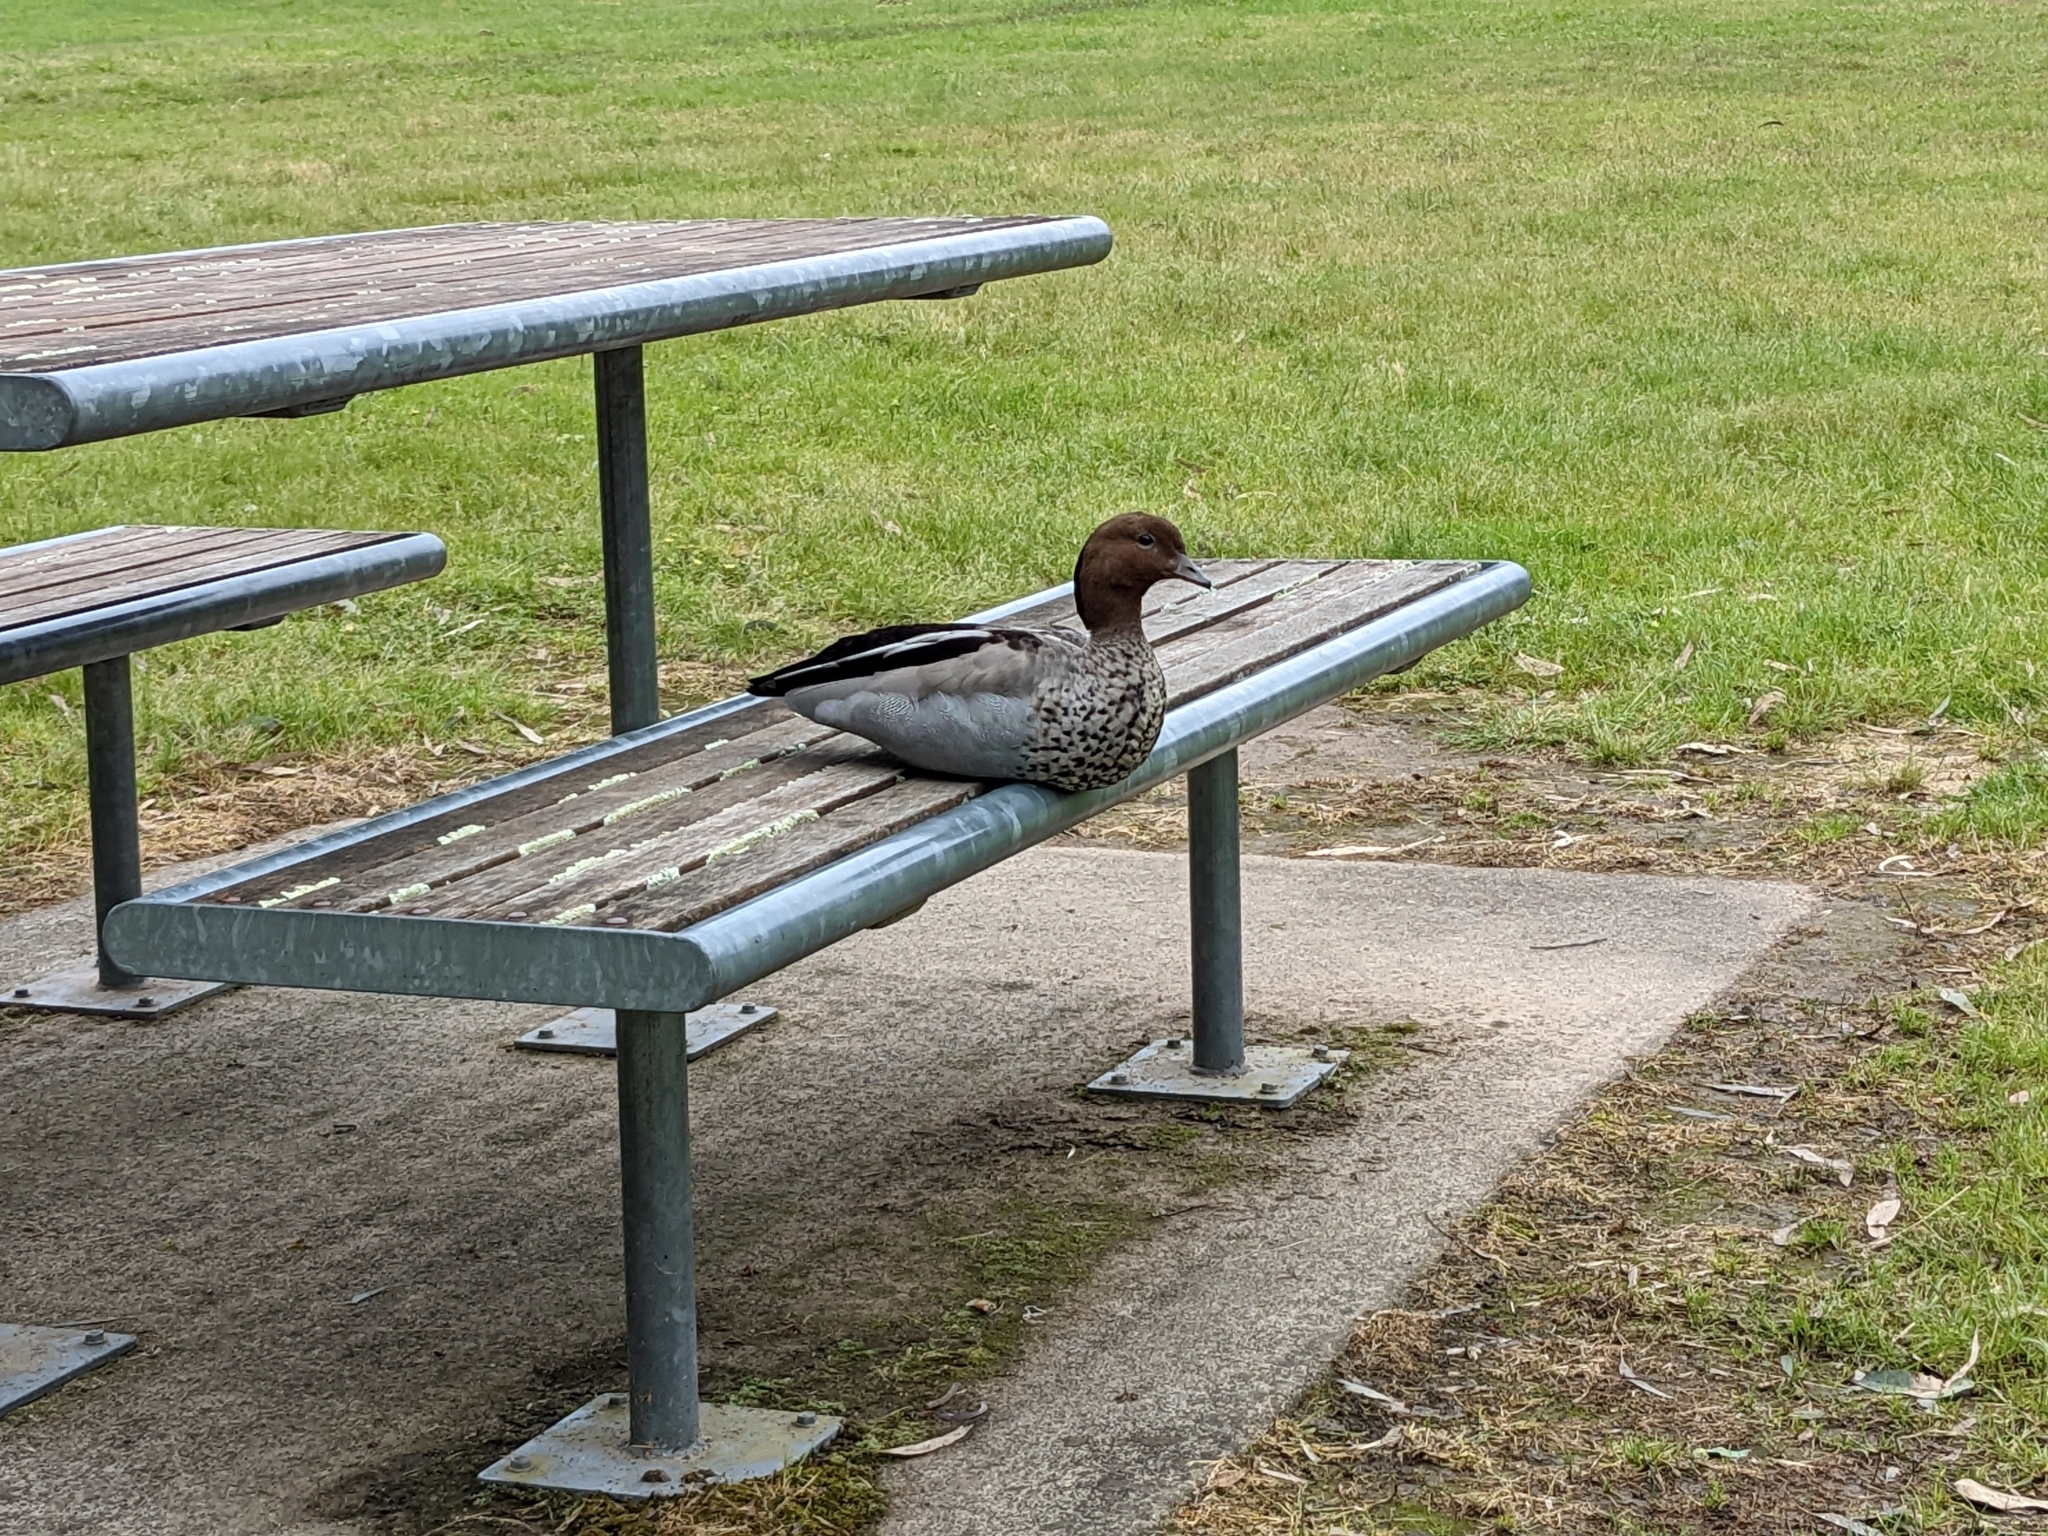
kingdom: Animalia
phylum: Chordata
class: Aves
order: Anseriformes
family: Anatidae
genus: Chenonetta
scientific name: Chenonetta jubata
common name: Maned duck
